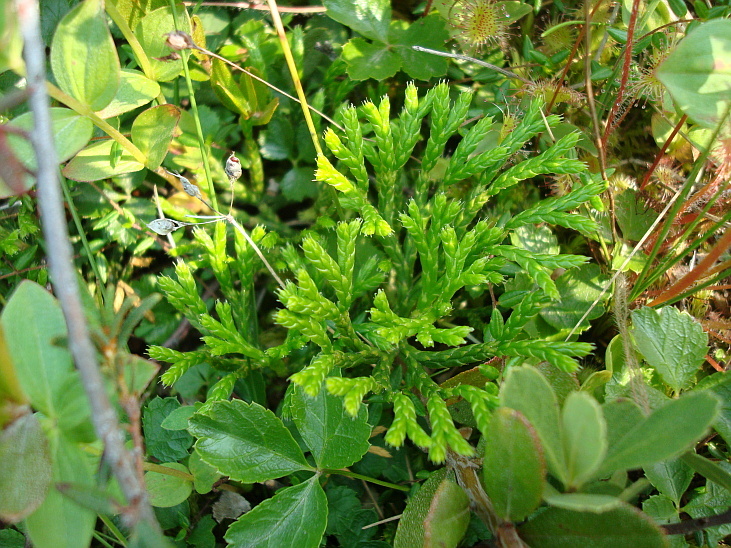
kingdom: Plantae
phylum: Tracheophyta
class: Lycopodiopsida
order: Lycopodiales
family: Lycopodiaceae
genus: Diphasiastrum
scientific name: Diphasiastrum complanatum
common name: Northern running-pine
